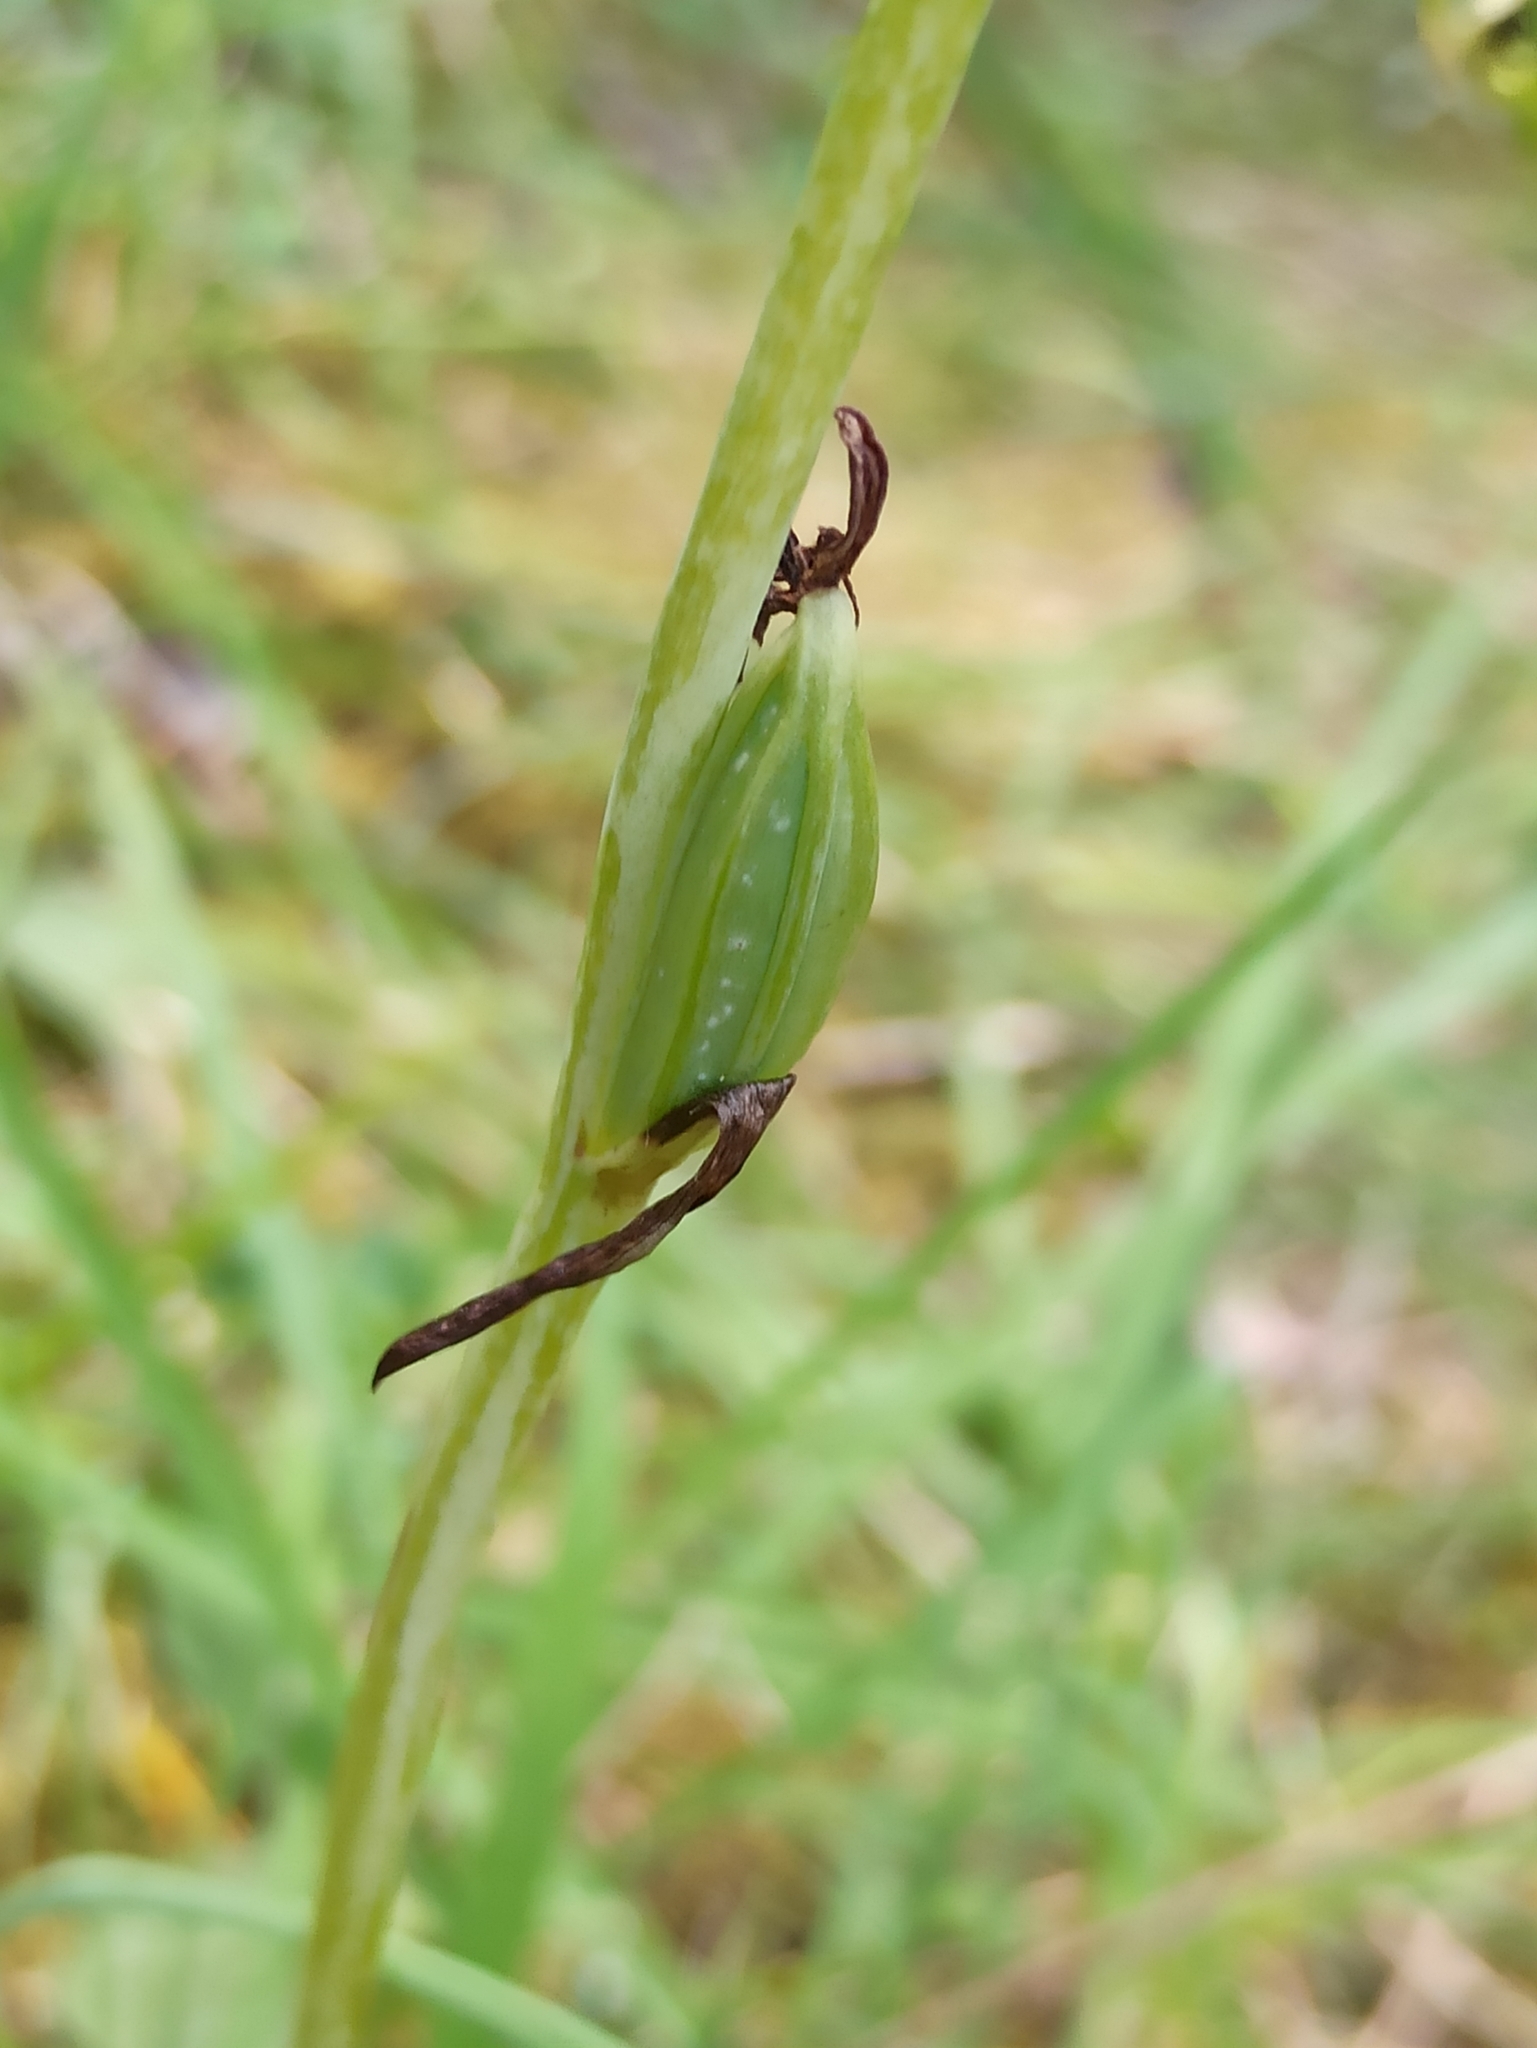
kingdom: Plantae
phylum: Tracheophyta
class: Liliopsida
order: Asparagales
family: Orchidaceae
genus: Ophrys
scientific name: Ophrys insectifera
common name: Fly orchid
